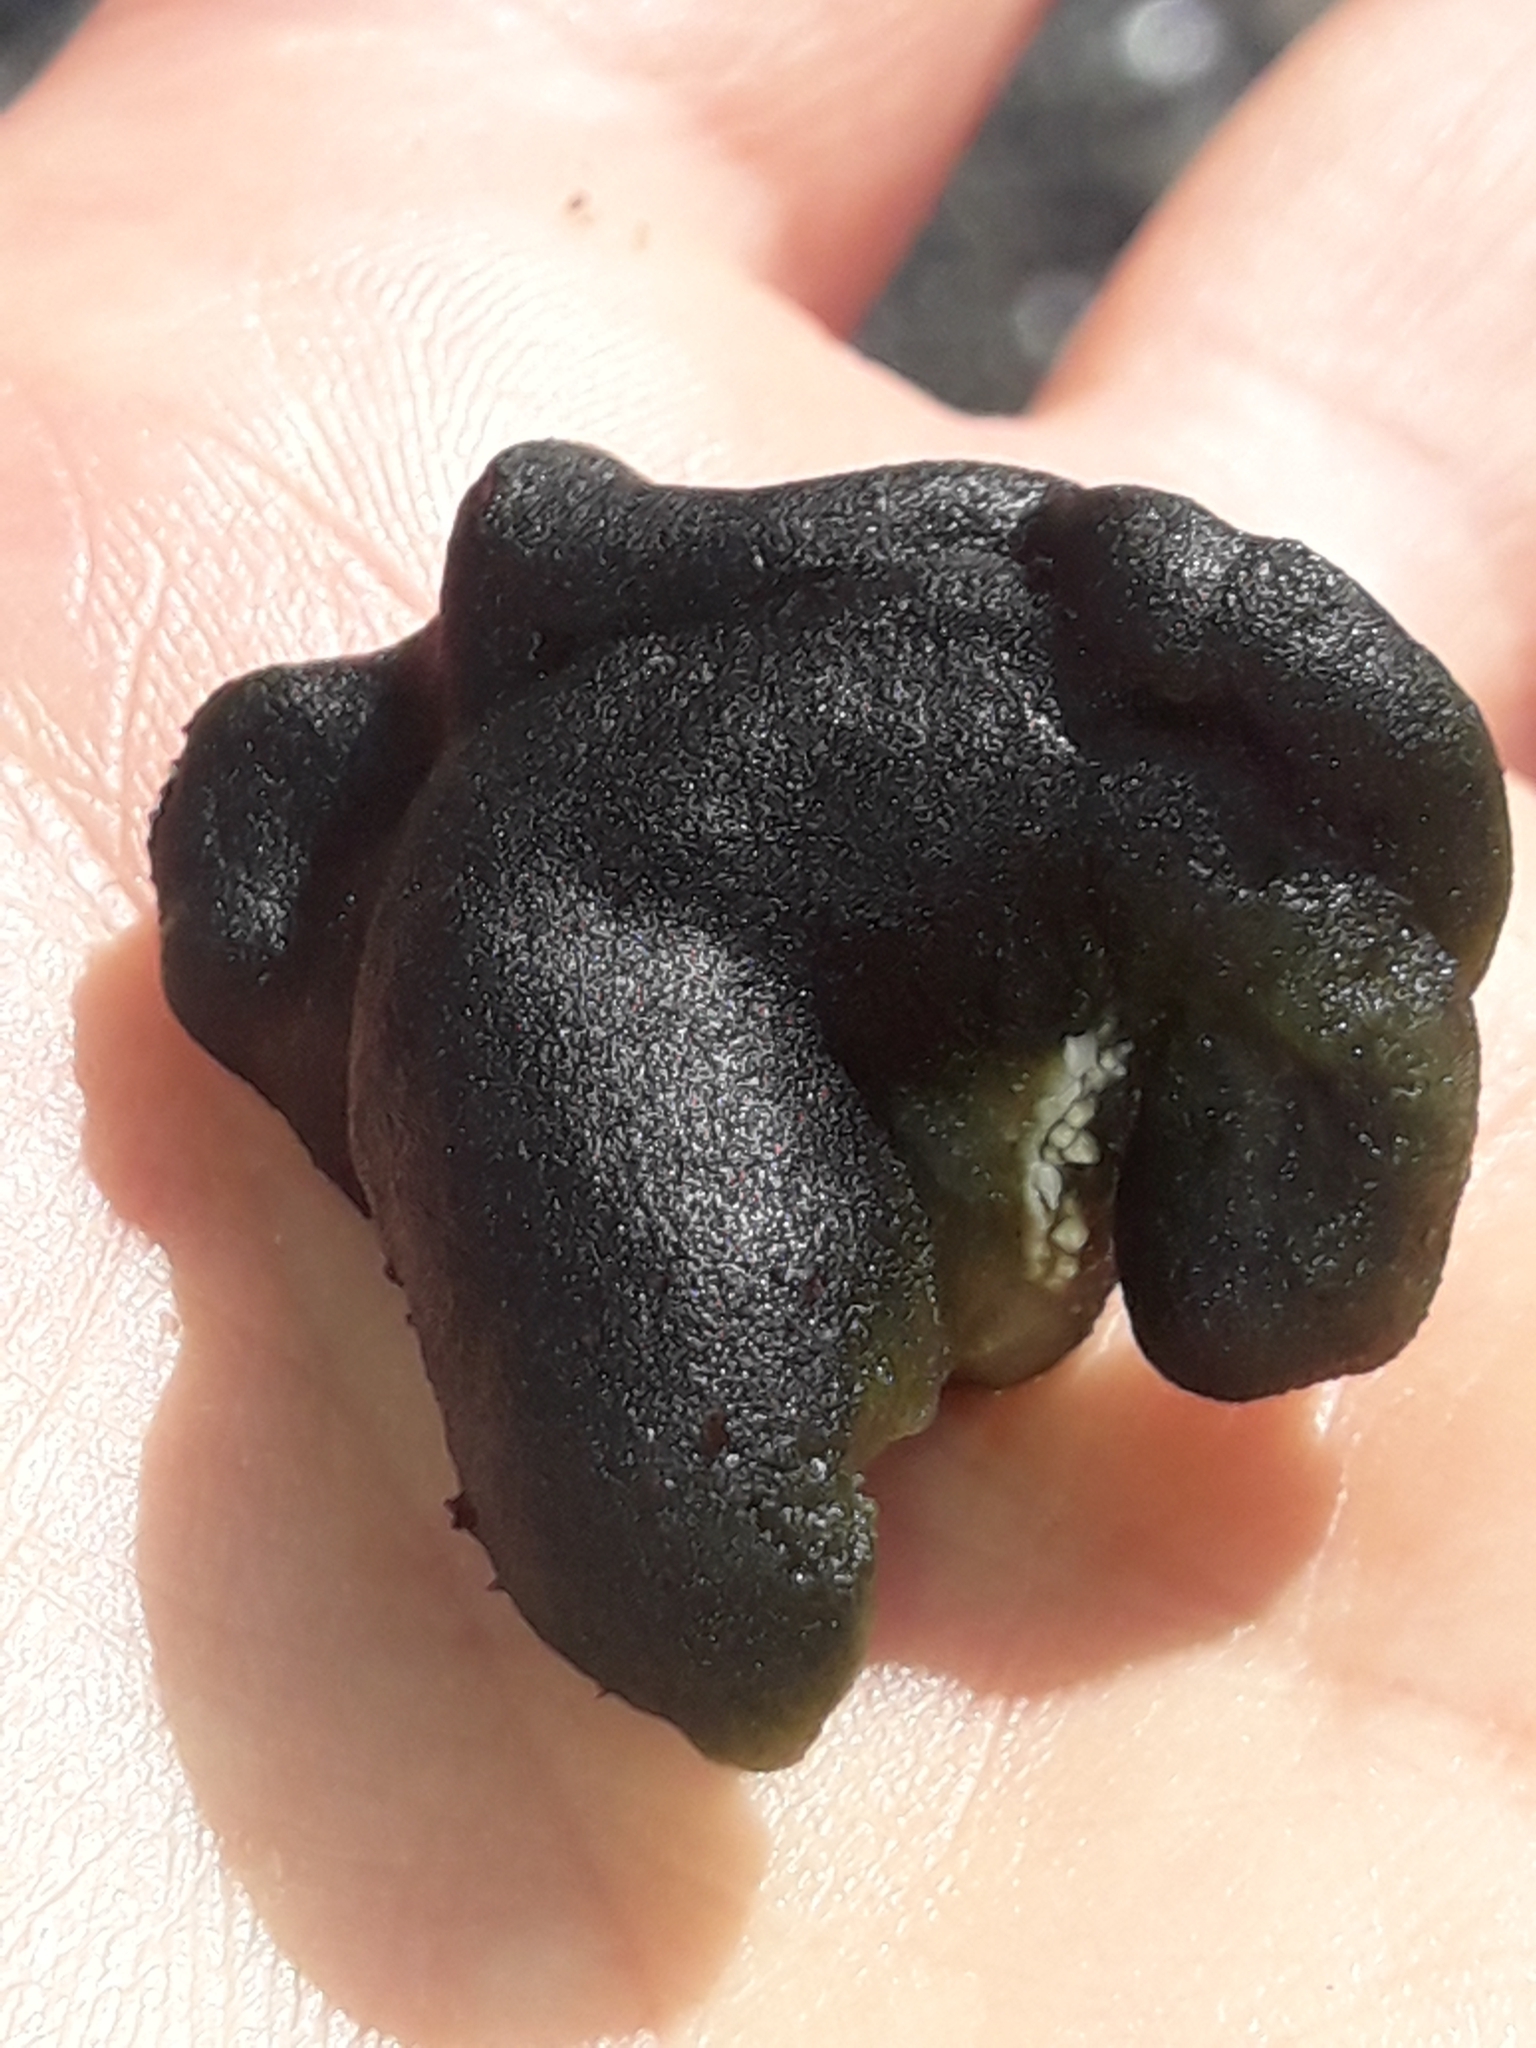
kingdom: Plantae
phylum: Chlorophyta
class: Ulvophyceae
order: Bryopsidales
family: Codiaceae
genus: Codium
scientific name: Codium convolutum
